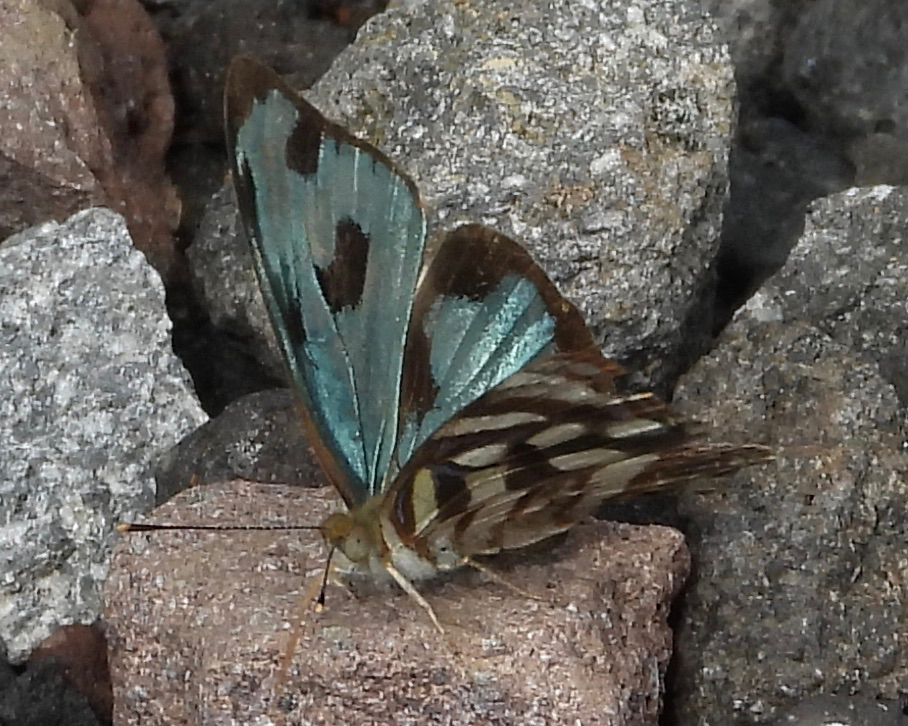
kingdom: Animalia
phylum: Arthropoda
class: Insecta
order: Lepidoptera
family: Nymphalidae
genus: Dynamine
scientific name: Dynamine mylitta
